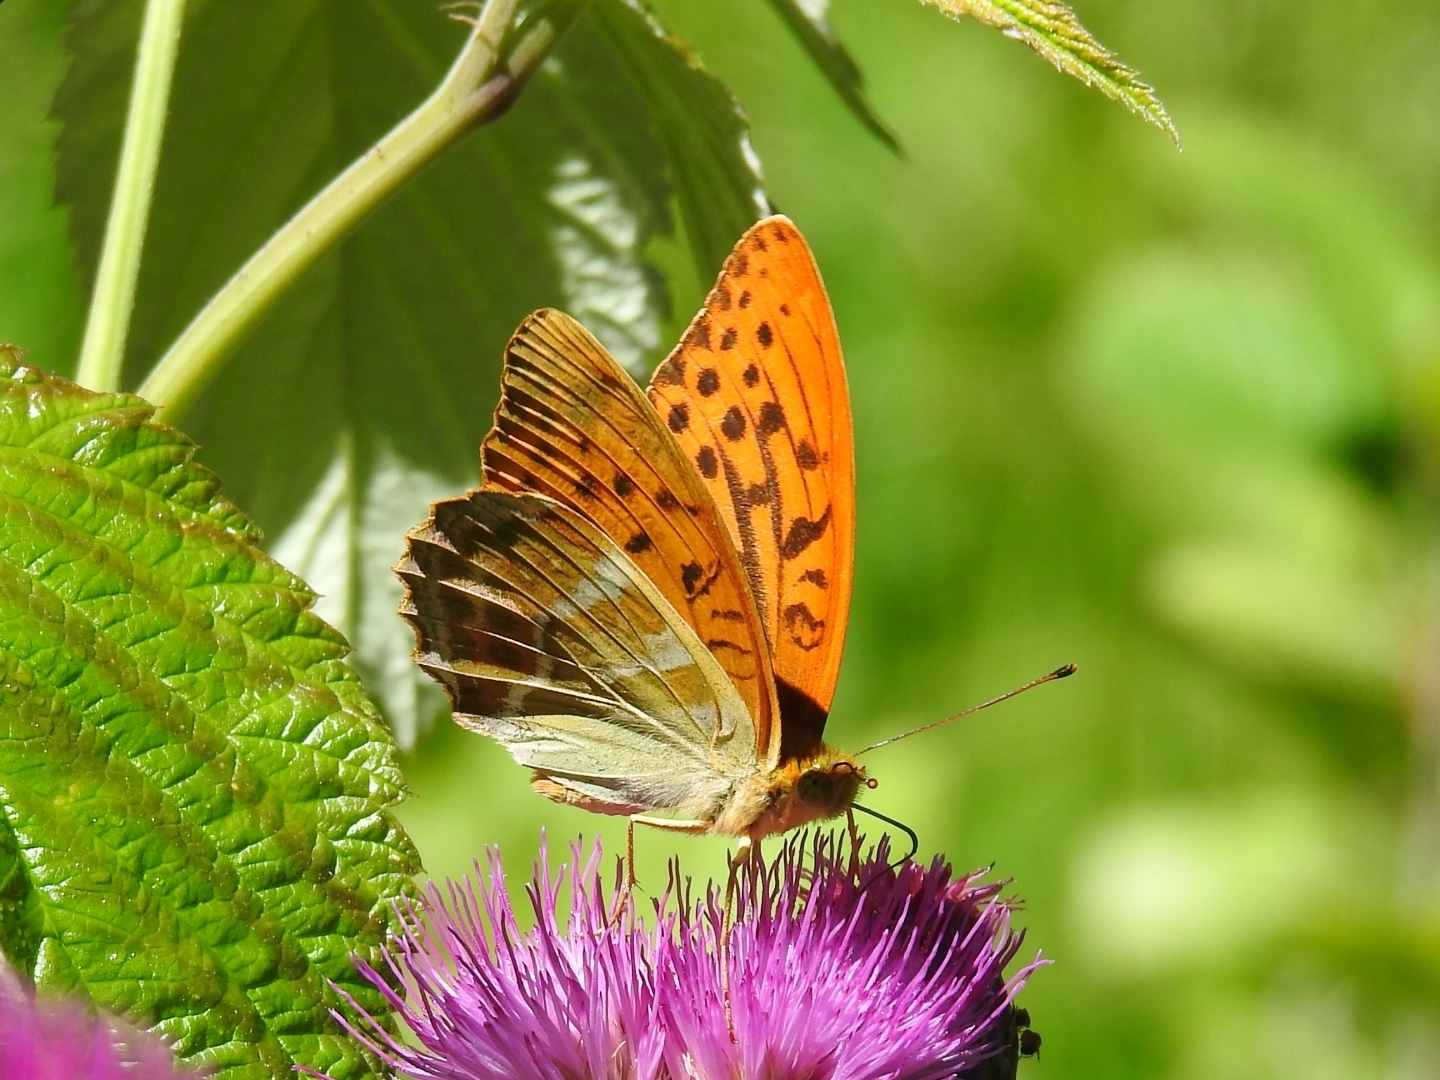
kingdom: Animalia
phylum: Arthropoda
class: Insecta
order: Lepidoptera
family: Nymphalidae
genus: Argynnis
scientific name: Argynnis paphia
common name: Silver-washed fritillary
